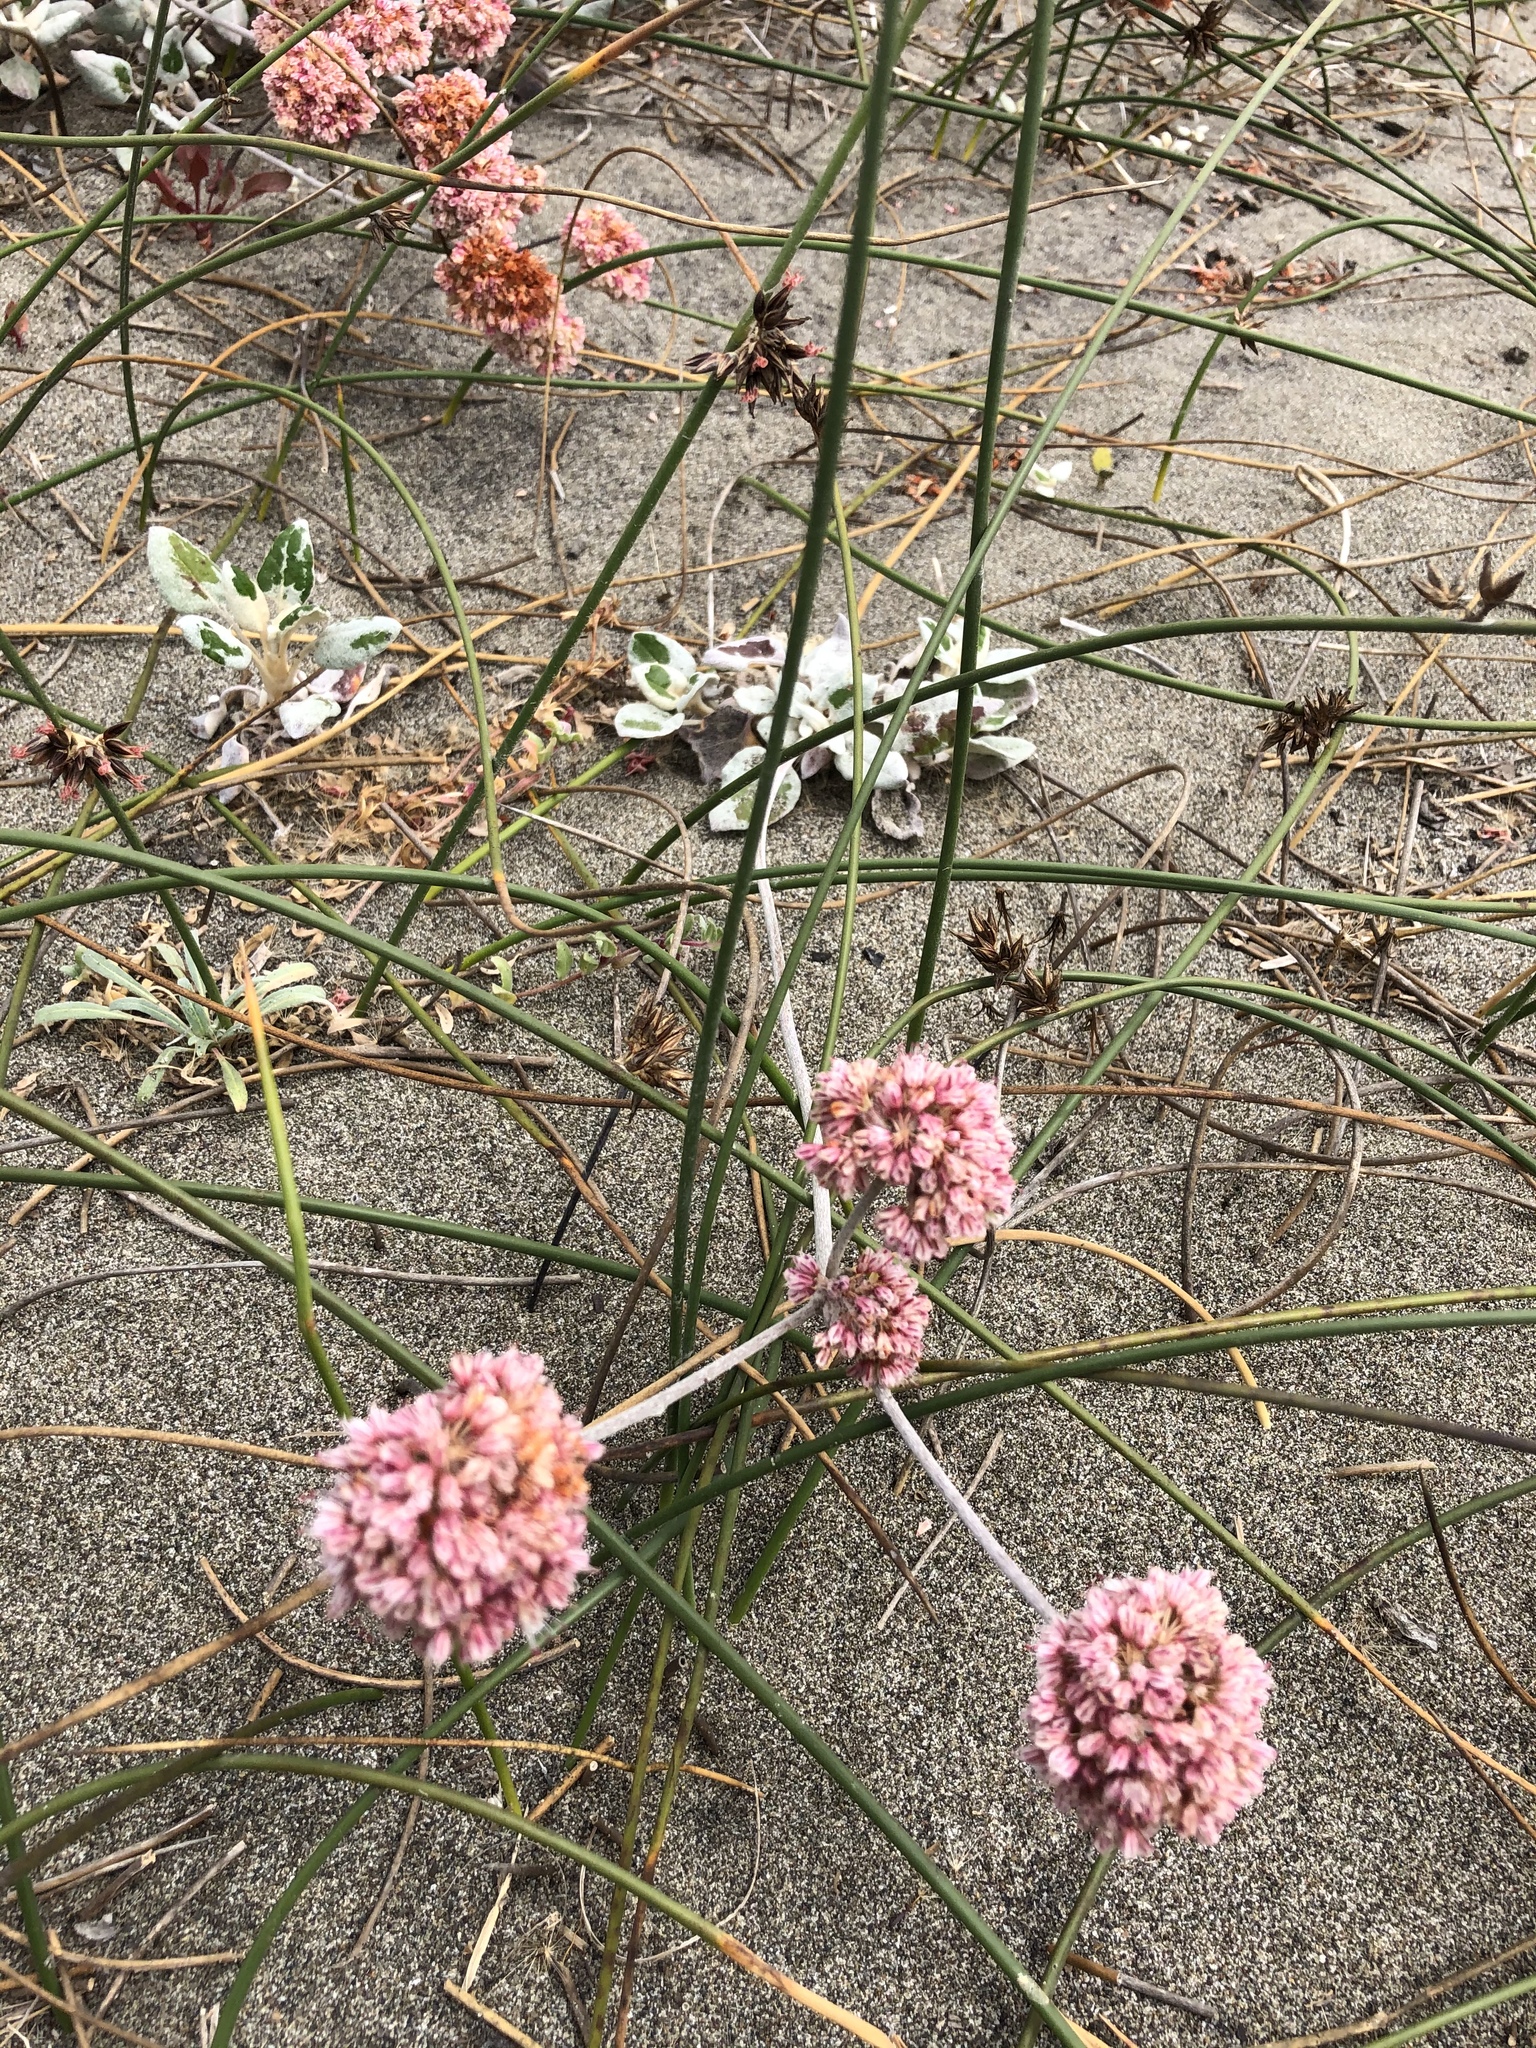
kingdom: Plantae
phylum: Tracheophyta
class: Magnoliopsida
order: Caryophyllales
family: Polygonaceae
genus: Eriogonum
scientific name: Eriogonum latifolium
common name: Seaside wild buckwheat
